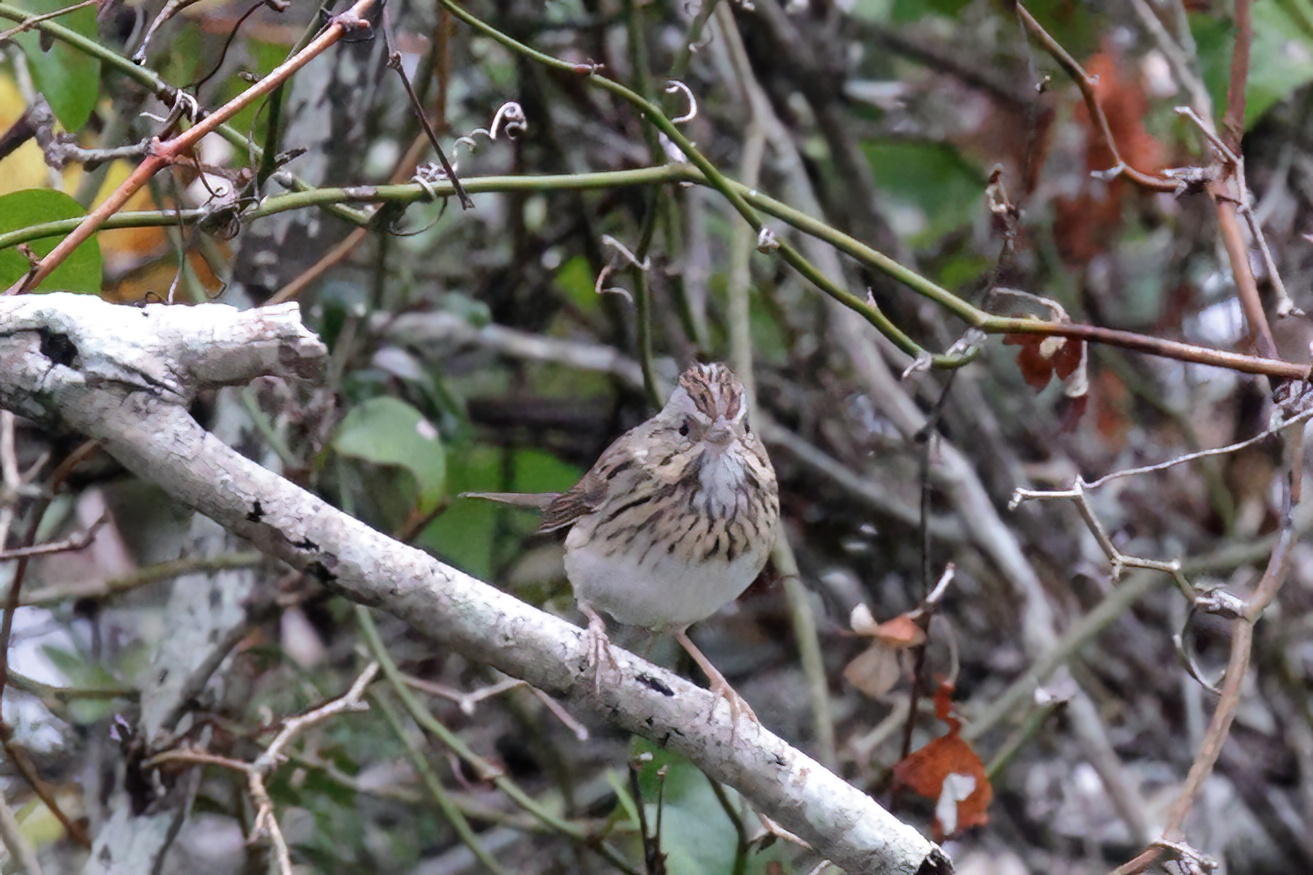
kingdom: Animalia
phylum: Chordata
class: Aves
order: Passeriformes
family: Passerellidae
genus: Melospiza
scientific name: Melospiza lincolnii
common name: Lincoln's sparrow
